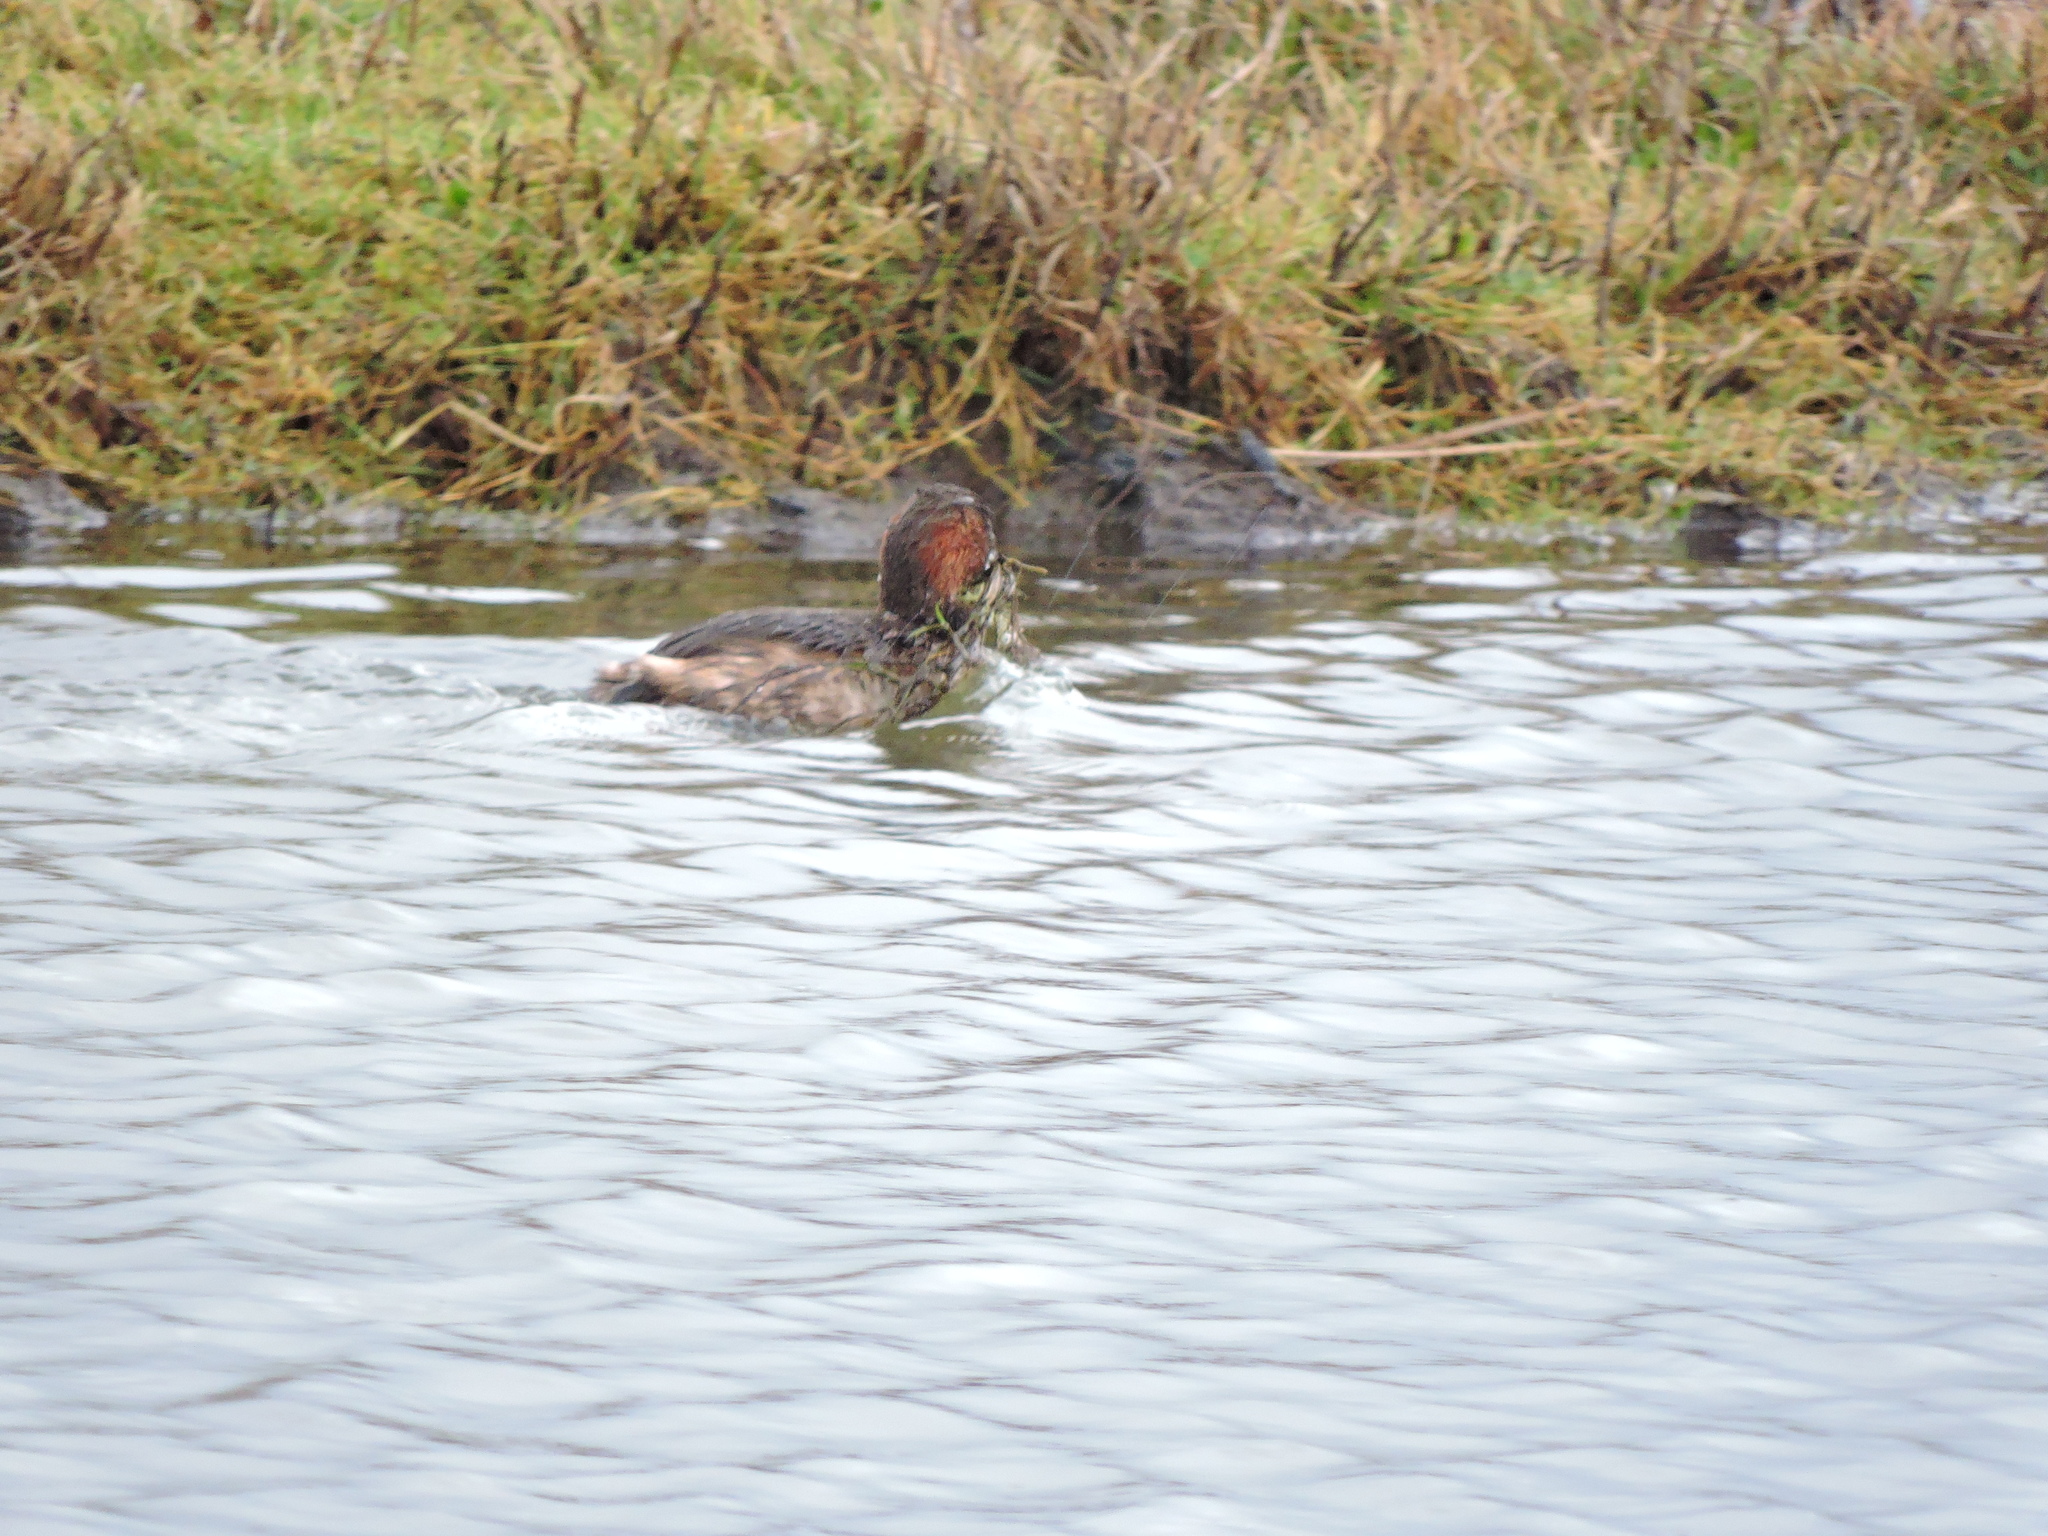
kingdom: Animalia
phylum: Chordata
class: Aves
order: Podicipediformes
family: Podicipedidae
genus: Tachybaptus
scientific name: Tachybaptus ruficollis
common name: Little grebe
